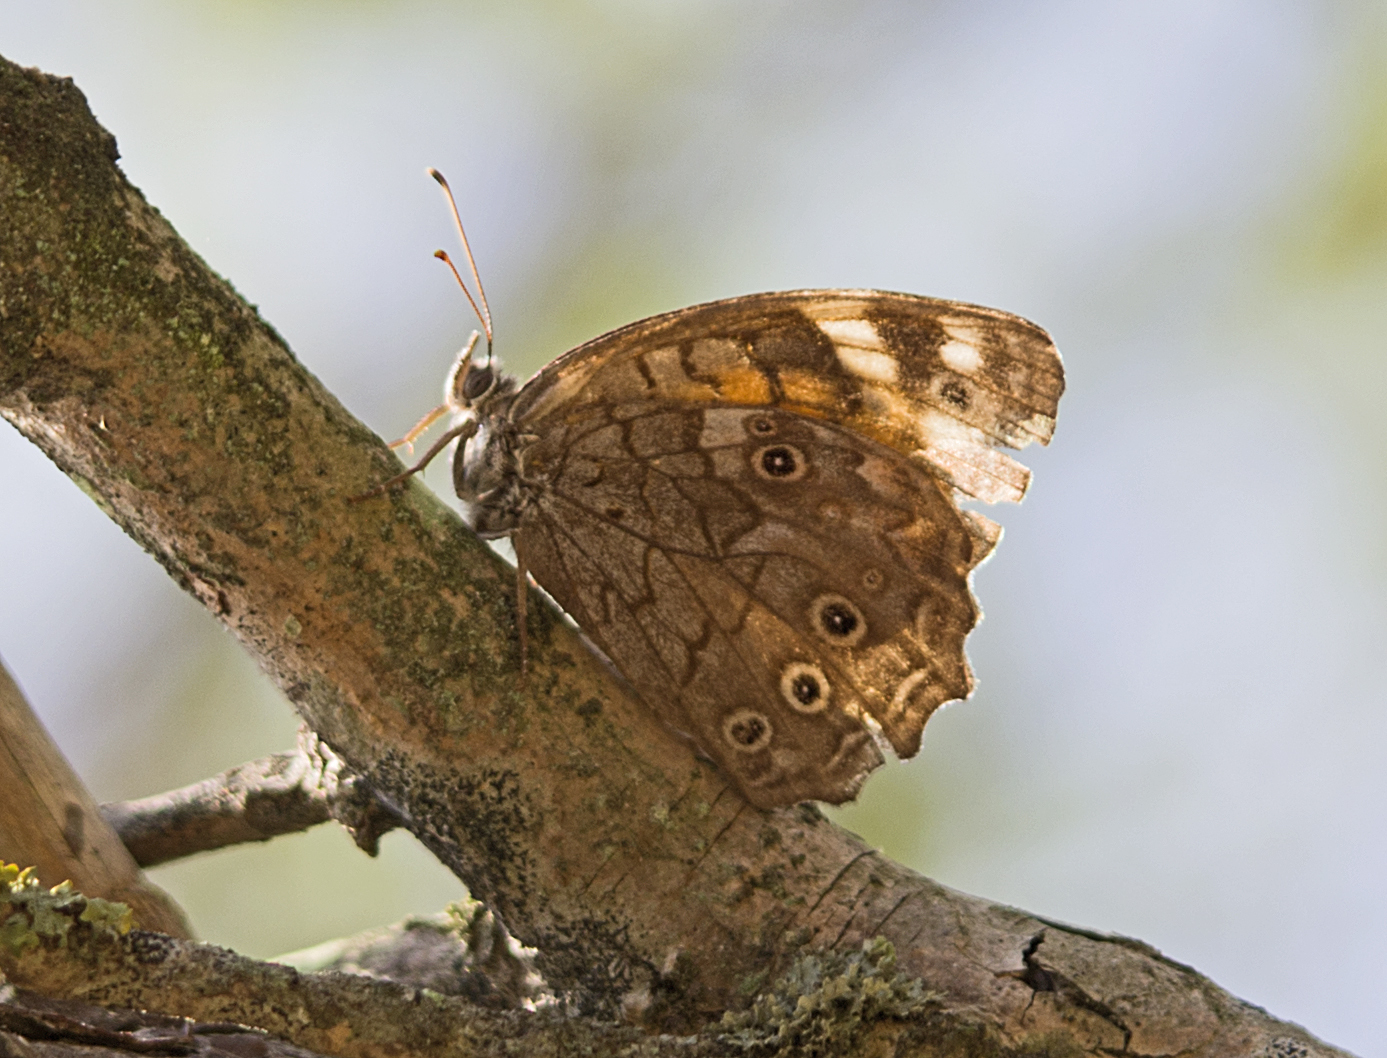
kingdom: Animalia
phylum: Arthropoda
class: Insecta
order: Lepidoptera
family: Nymphalidae
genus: Kirinia
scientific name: Kirinia roxelana
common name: Lattice brown
